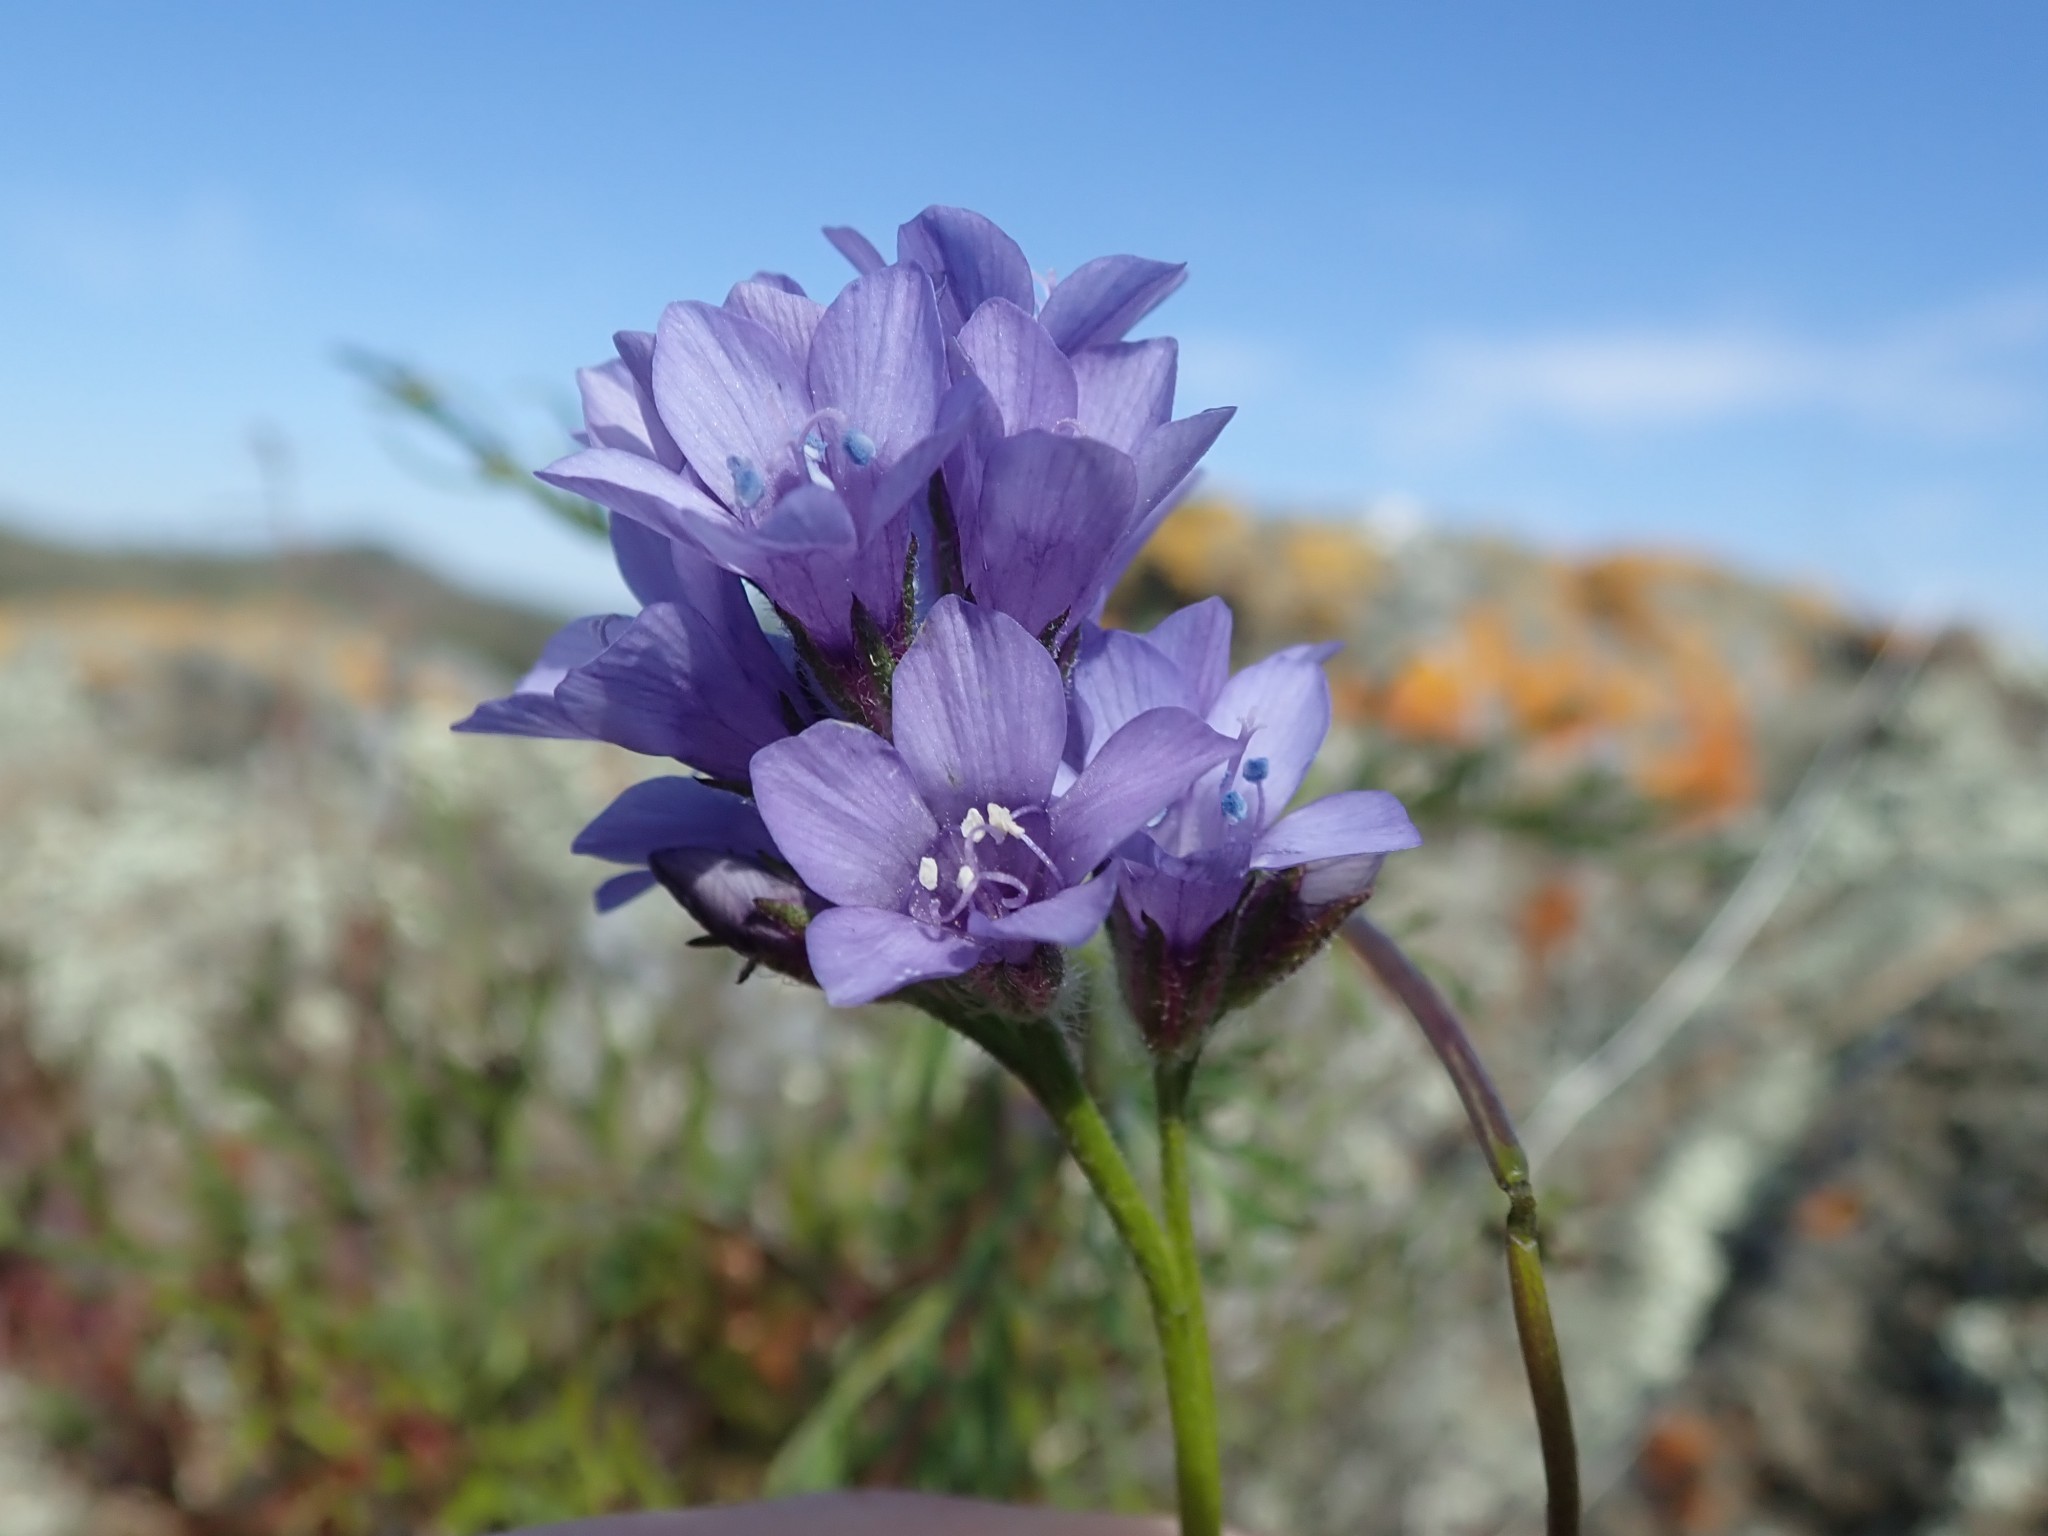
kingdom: Plantae
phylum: Tracheophyta
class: Magnoliopsida
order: Ericales
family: Polemoniaceae
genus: Gilia
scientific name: Gilia achilleifolia
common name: California gily-flower
